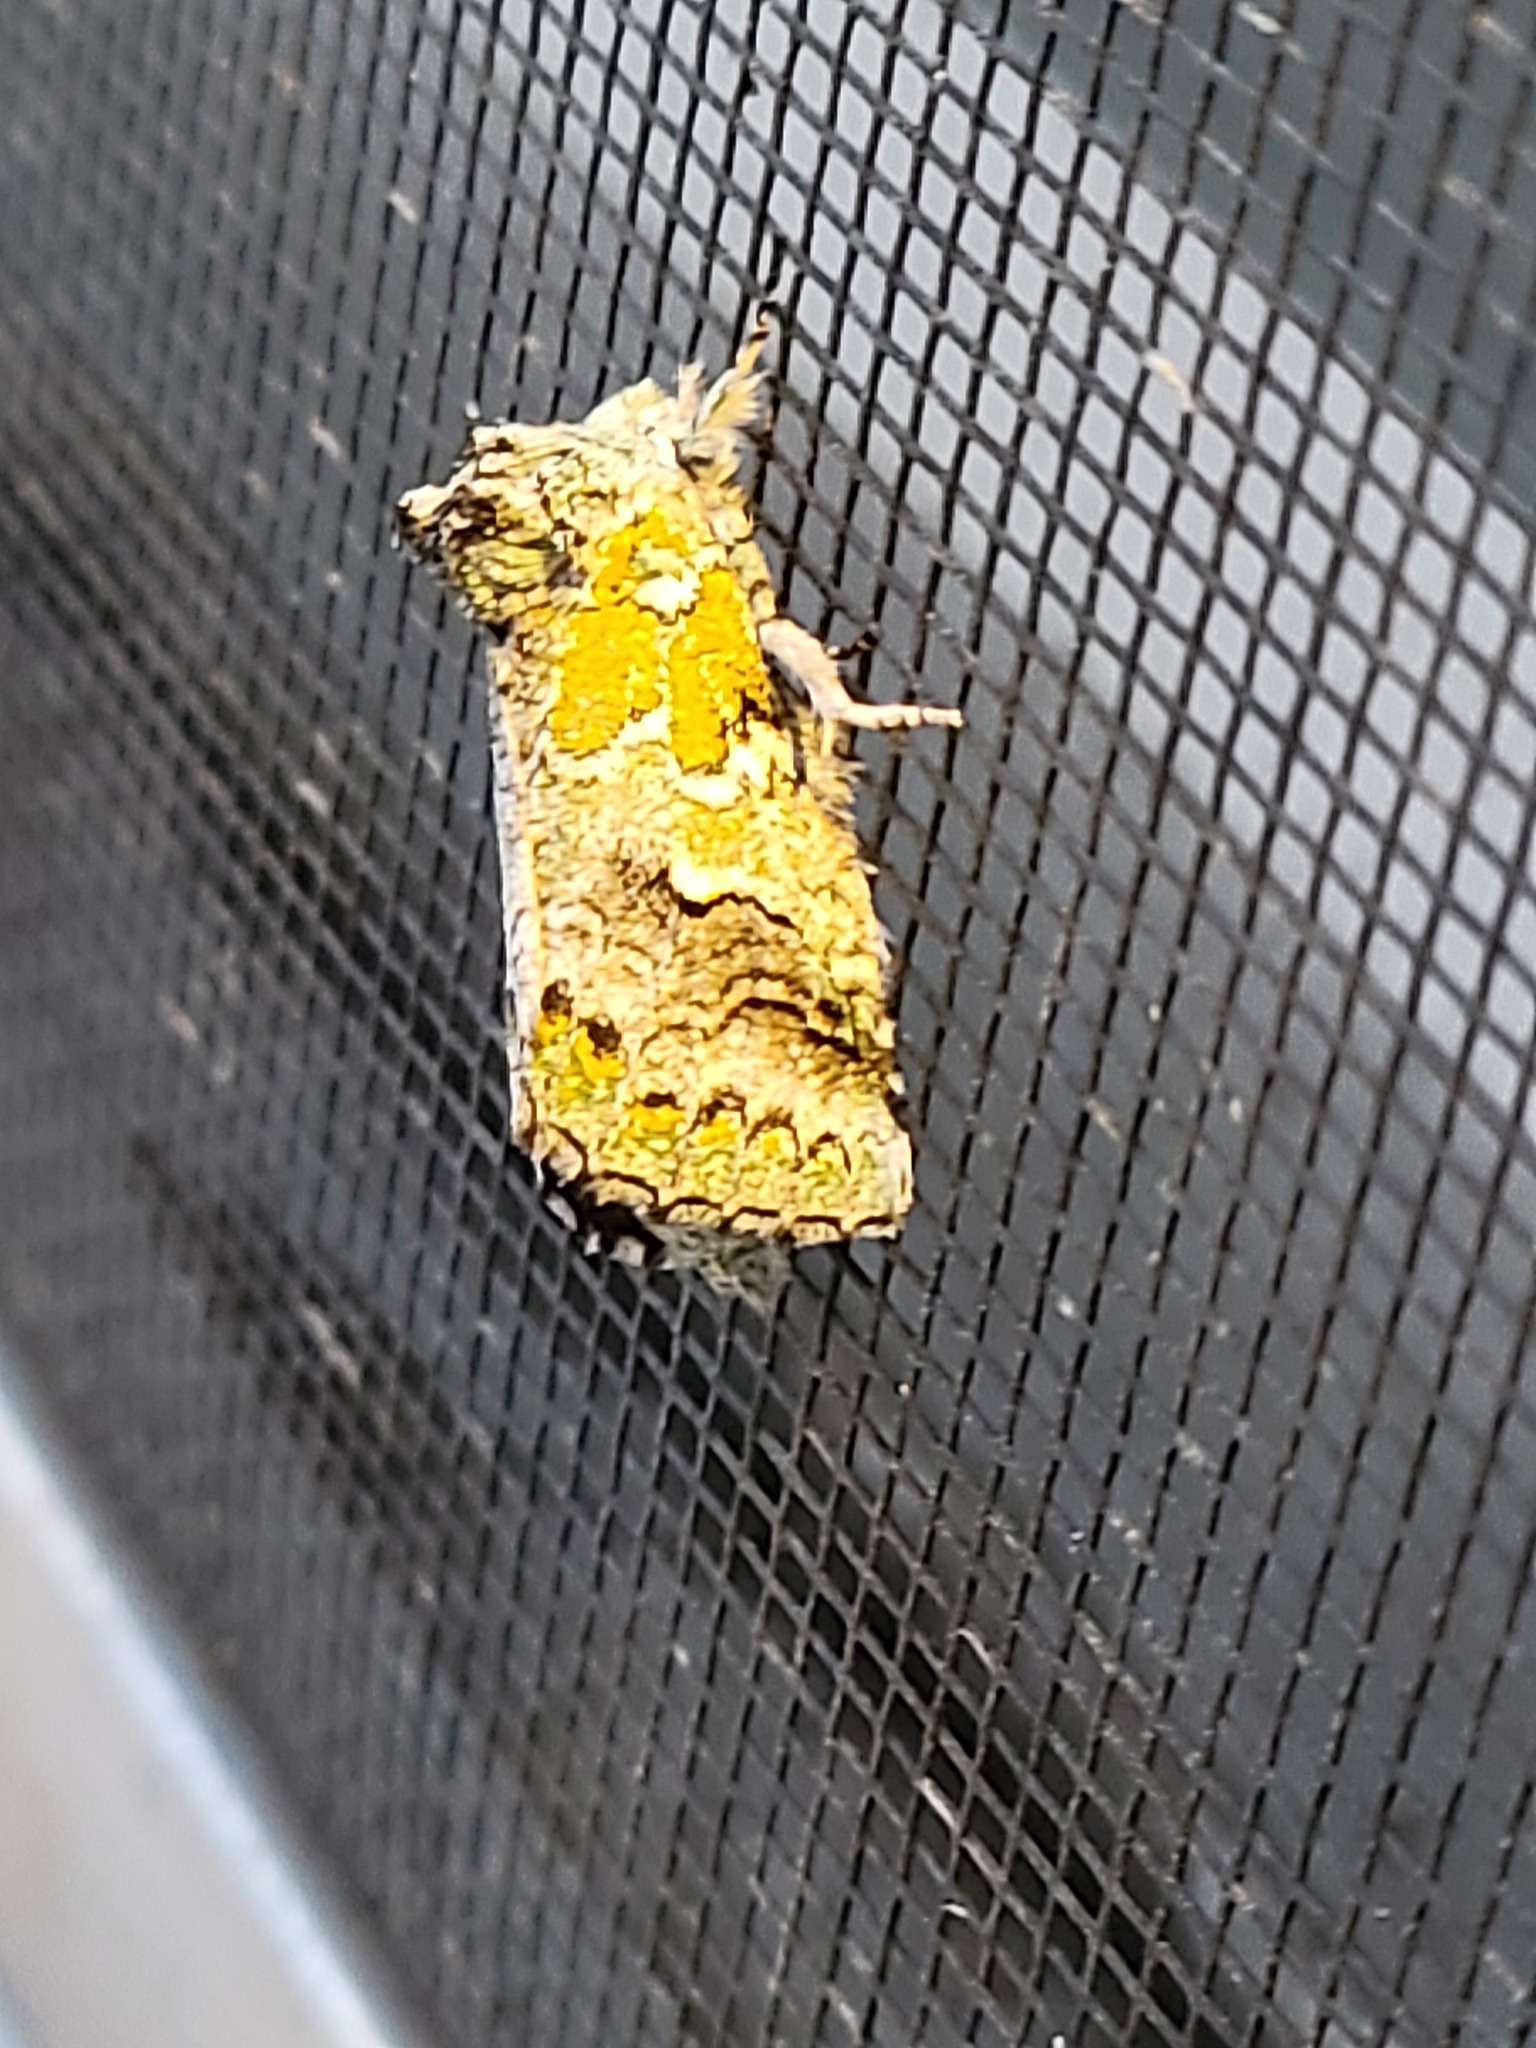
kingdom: Animalia
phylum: Arthropoda
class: Insecta
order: Lepidoptera
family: Notodontidae
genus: Litodonta
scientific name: Litodonta hydromeli
